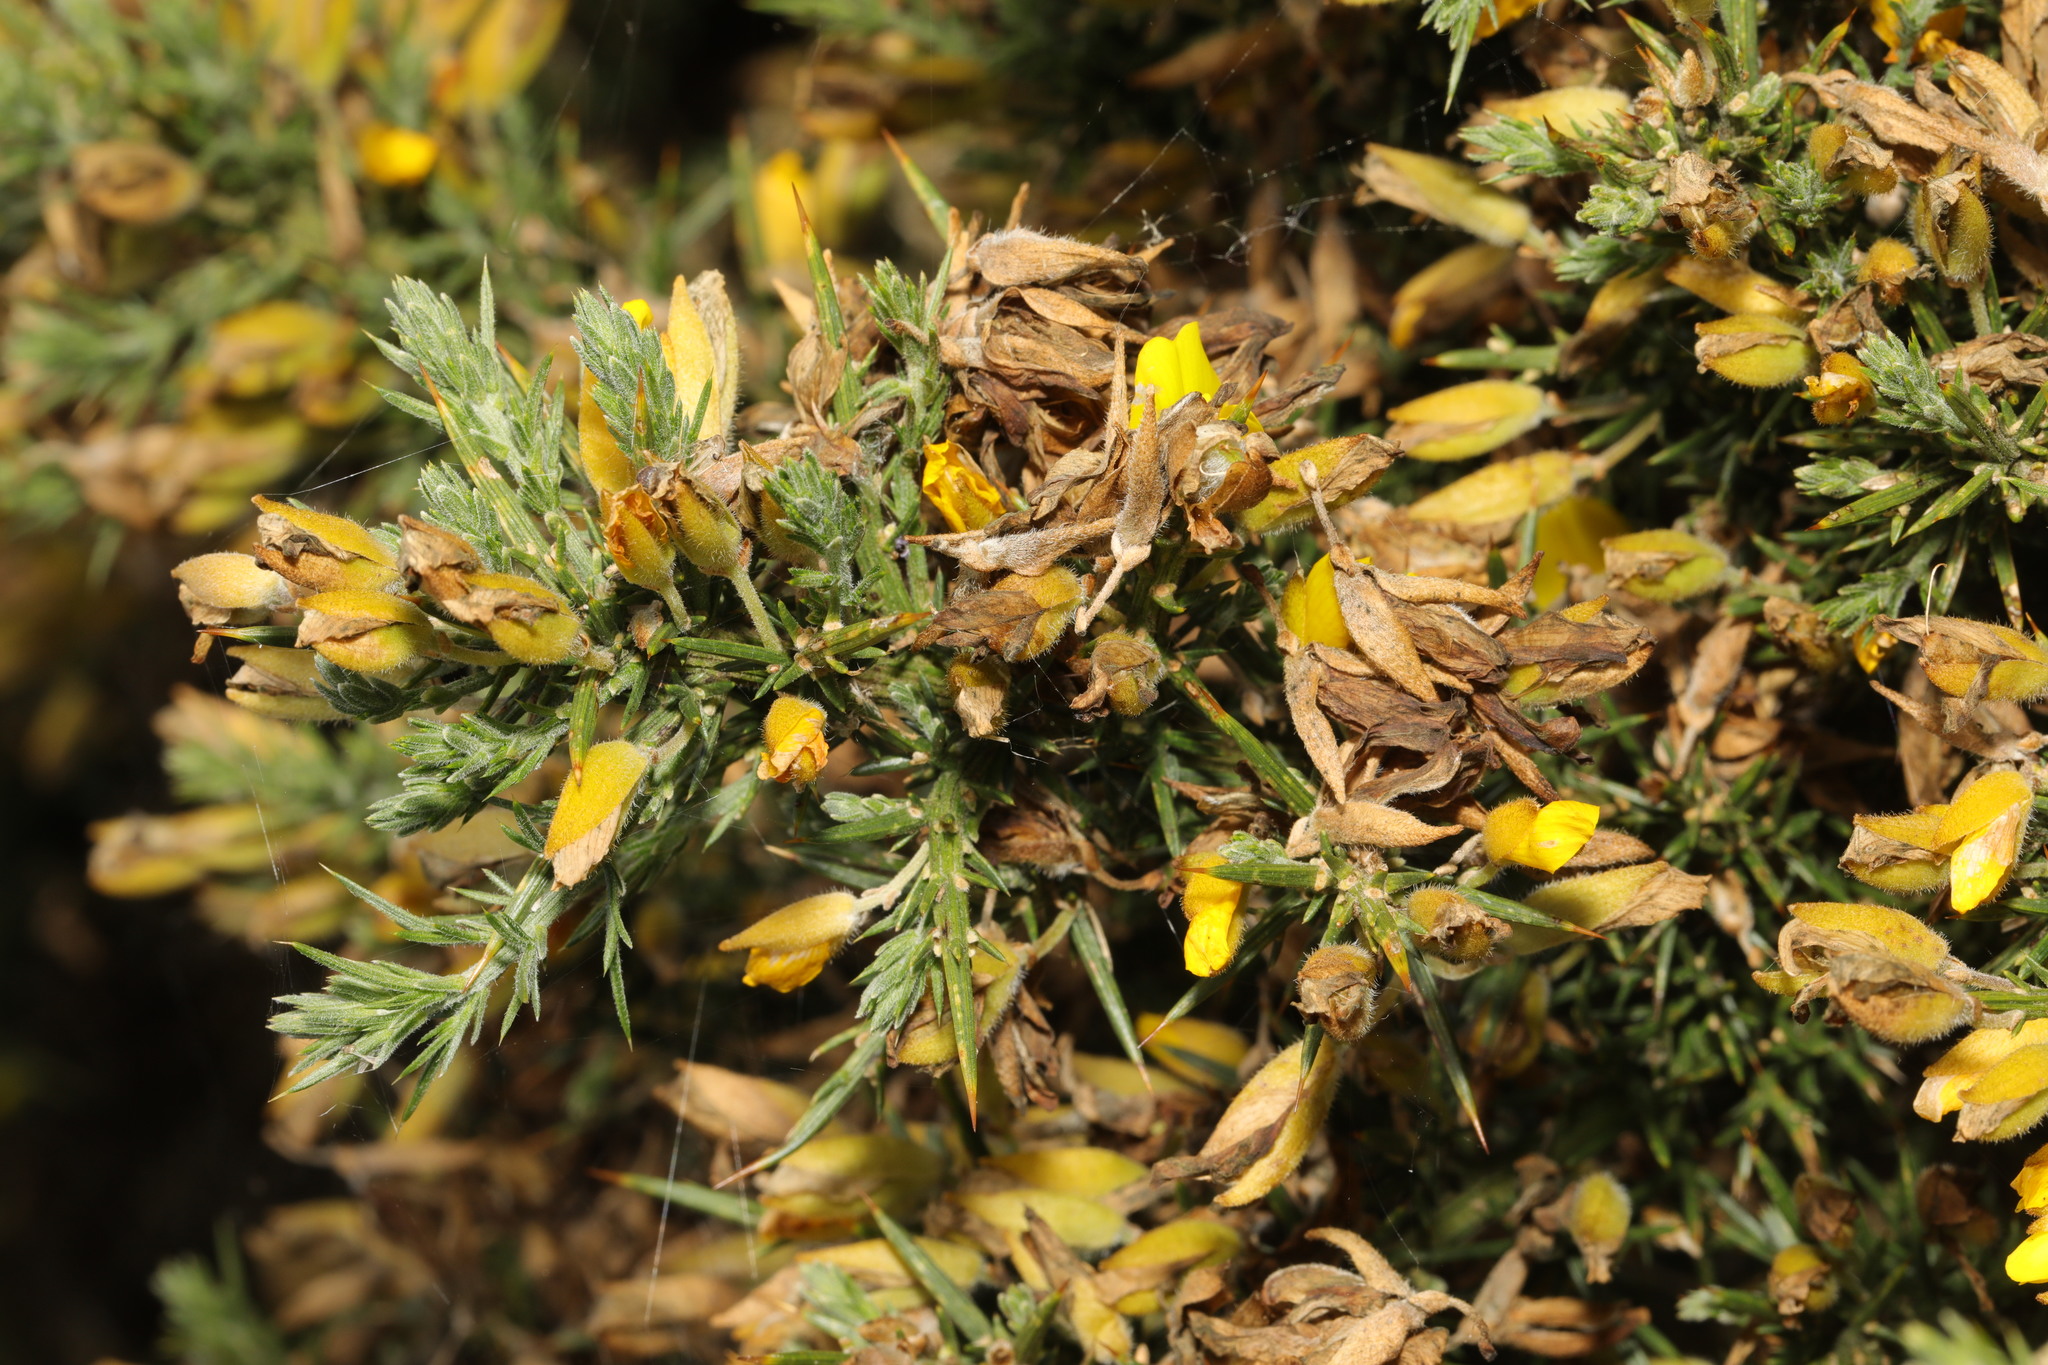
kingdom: Plantae
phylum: Tracheophyta
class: Magnoliopsida
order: Fabales
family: Fabaceae
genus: Ulex
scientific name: Ulex europaeus
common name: Common gorse
